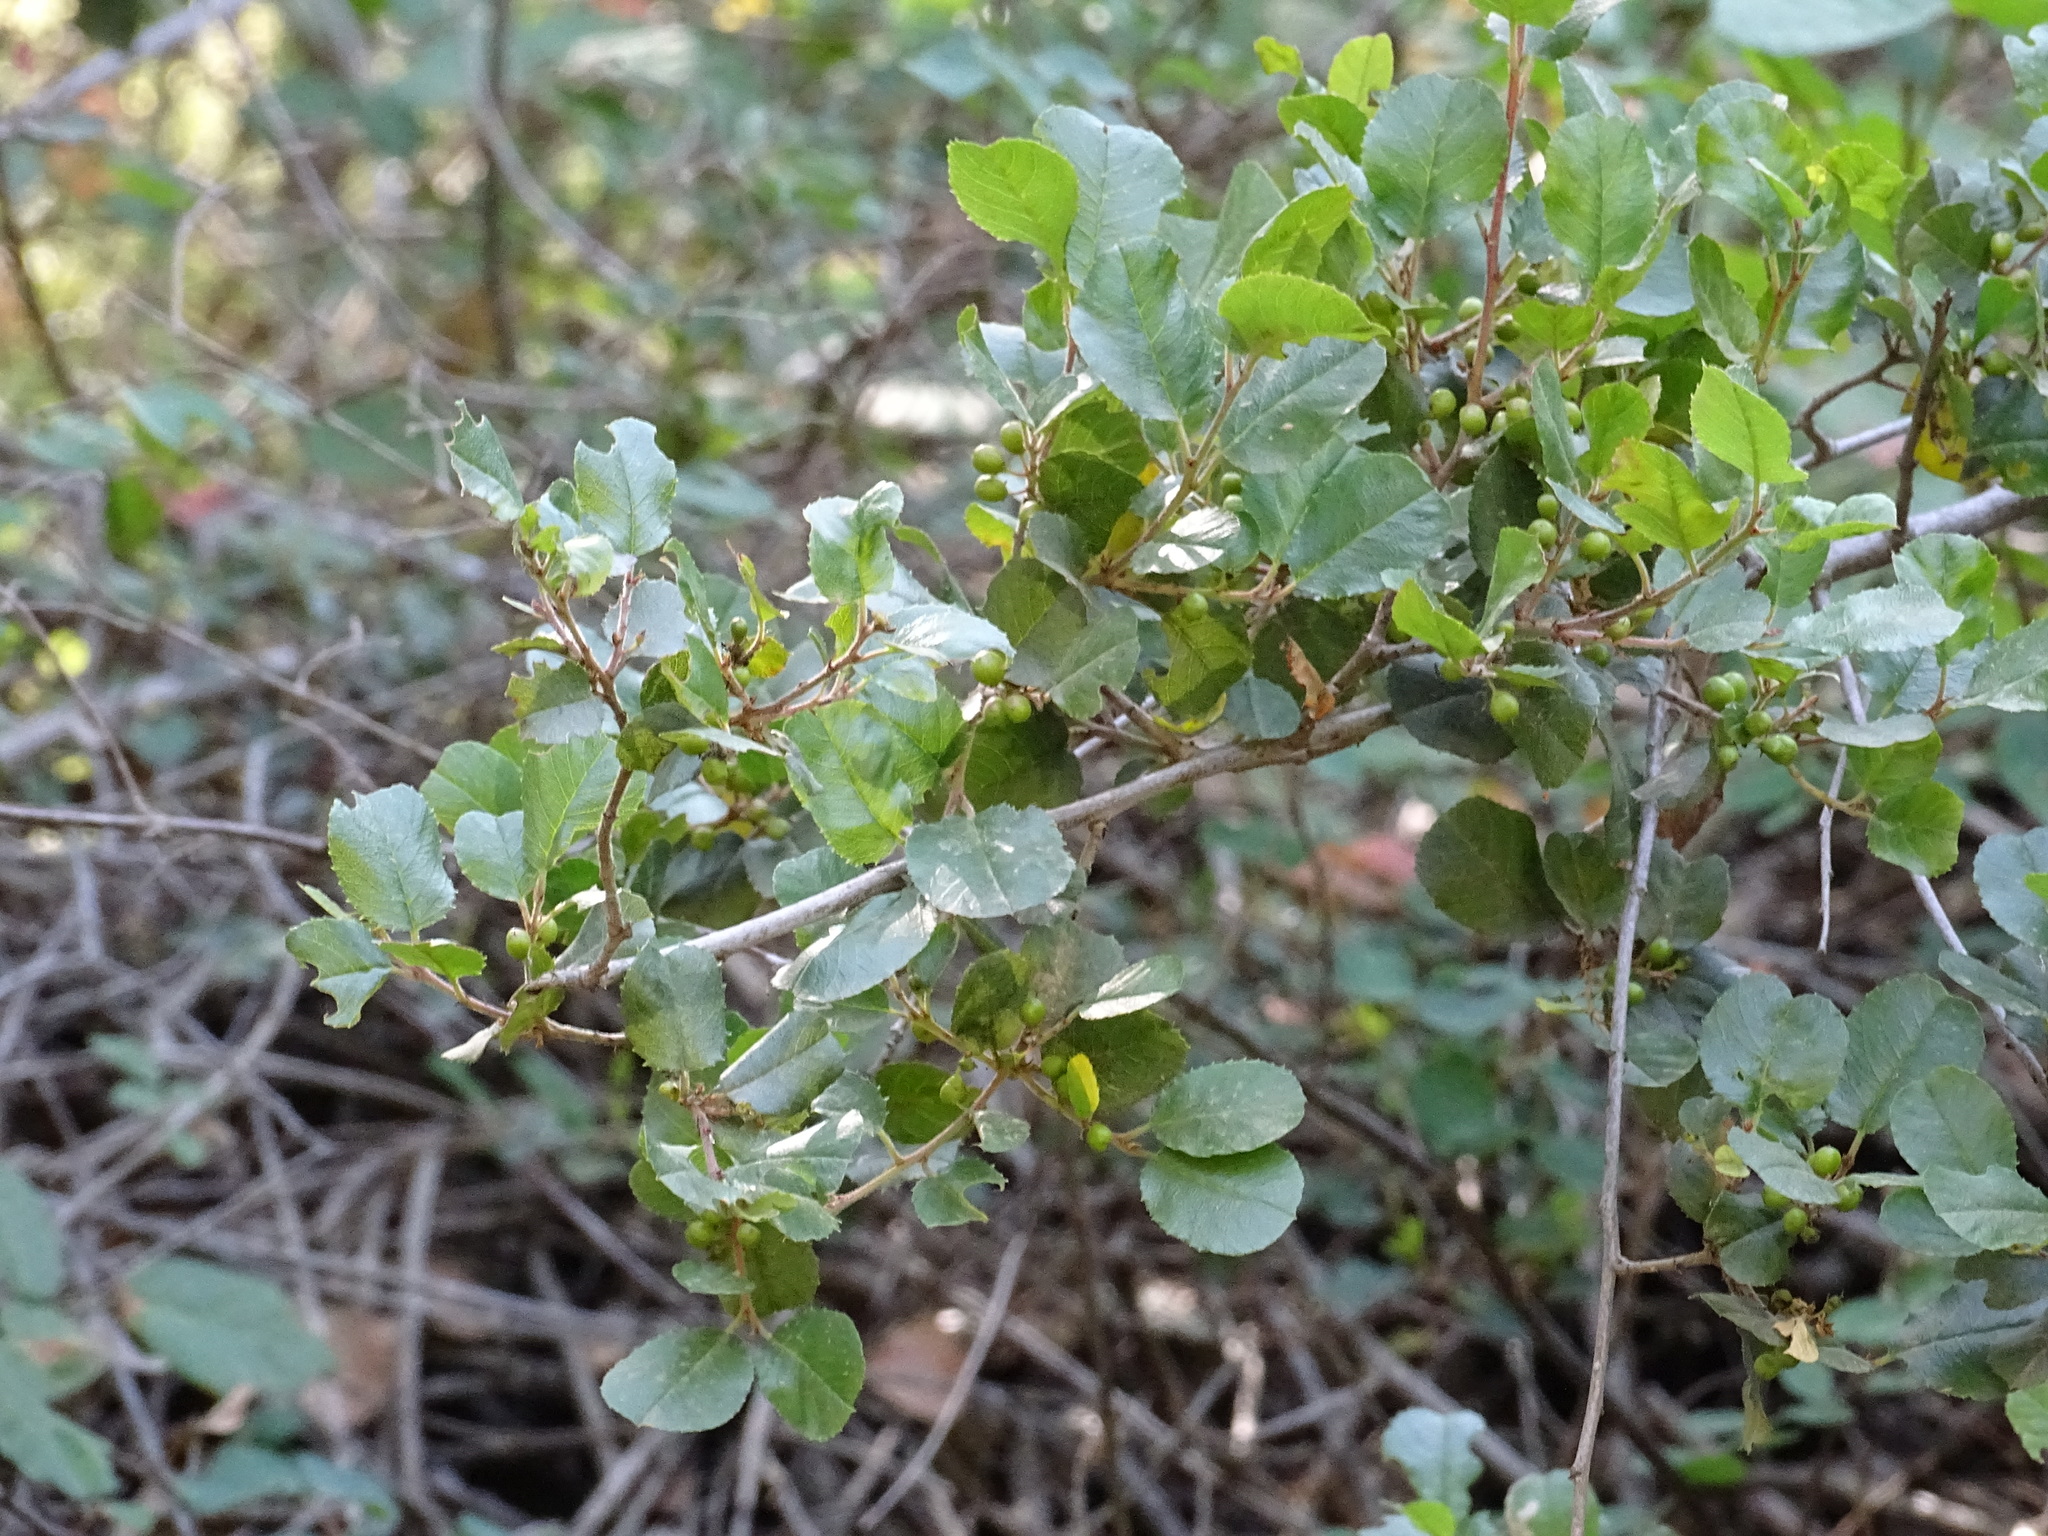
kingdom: Plantae
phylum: Tracheophyta
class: Magnoliopsida
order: Rosales
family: Rhamnaceae
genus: Endotropis
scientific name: Endotropis crocea
